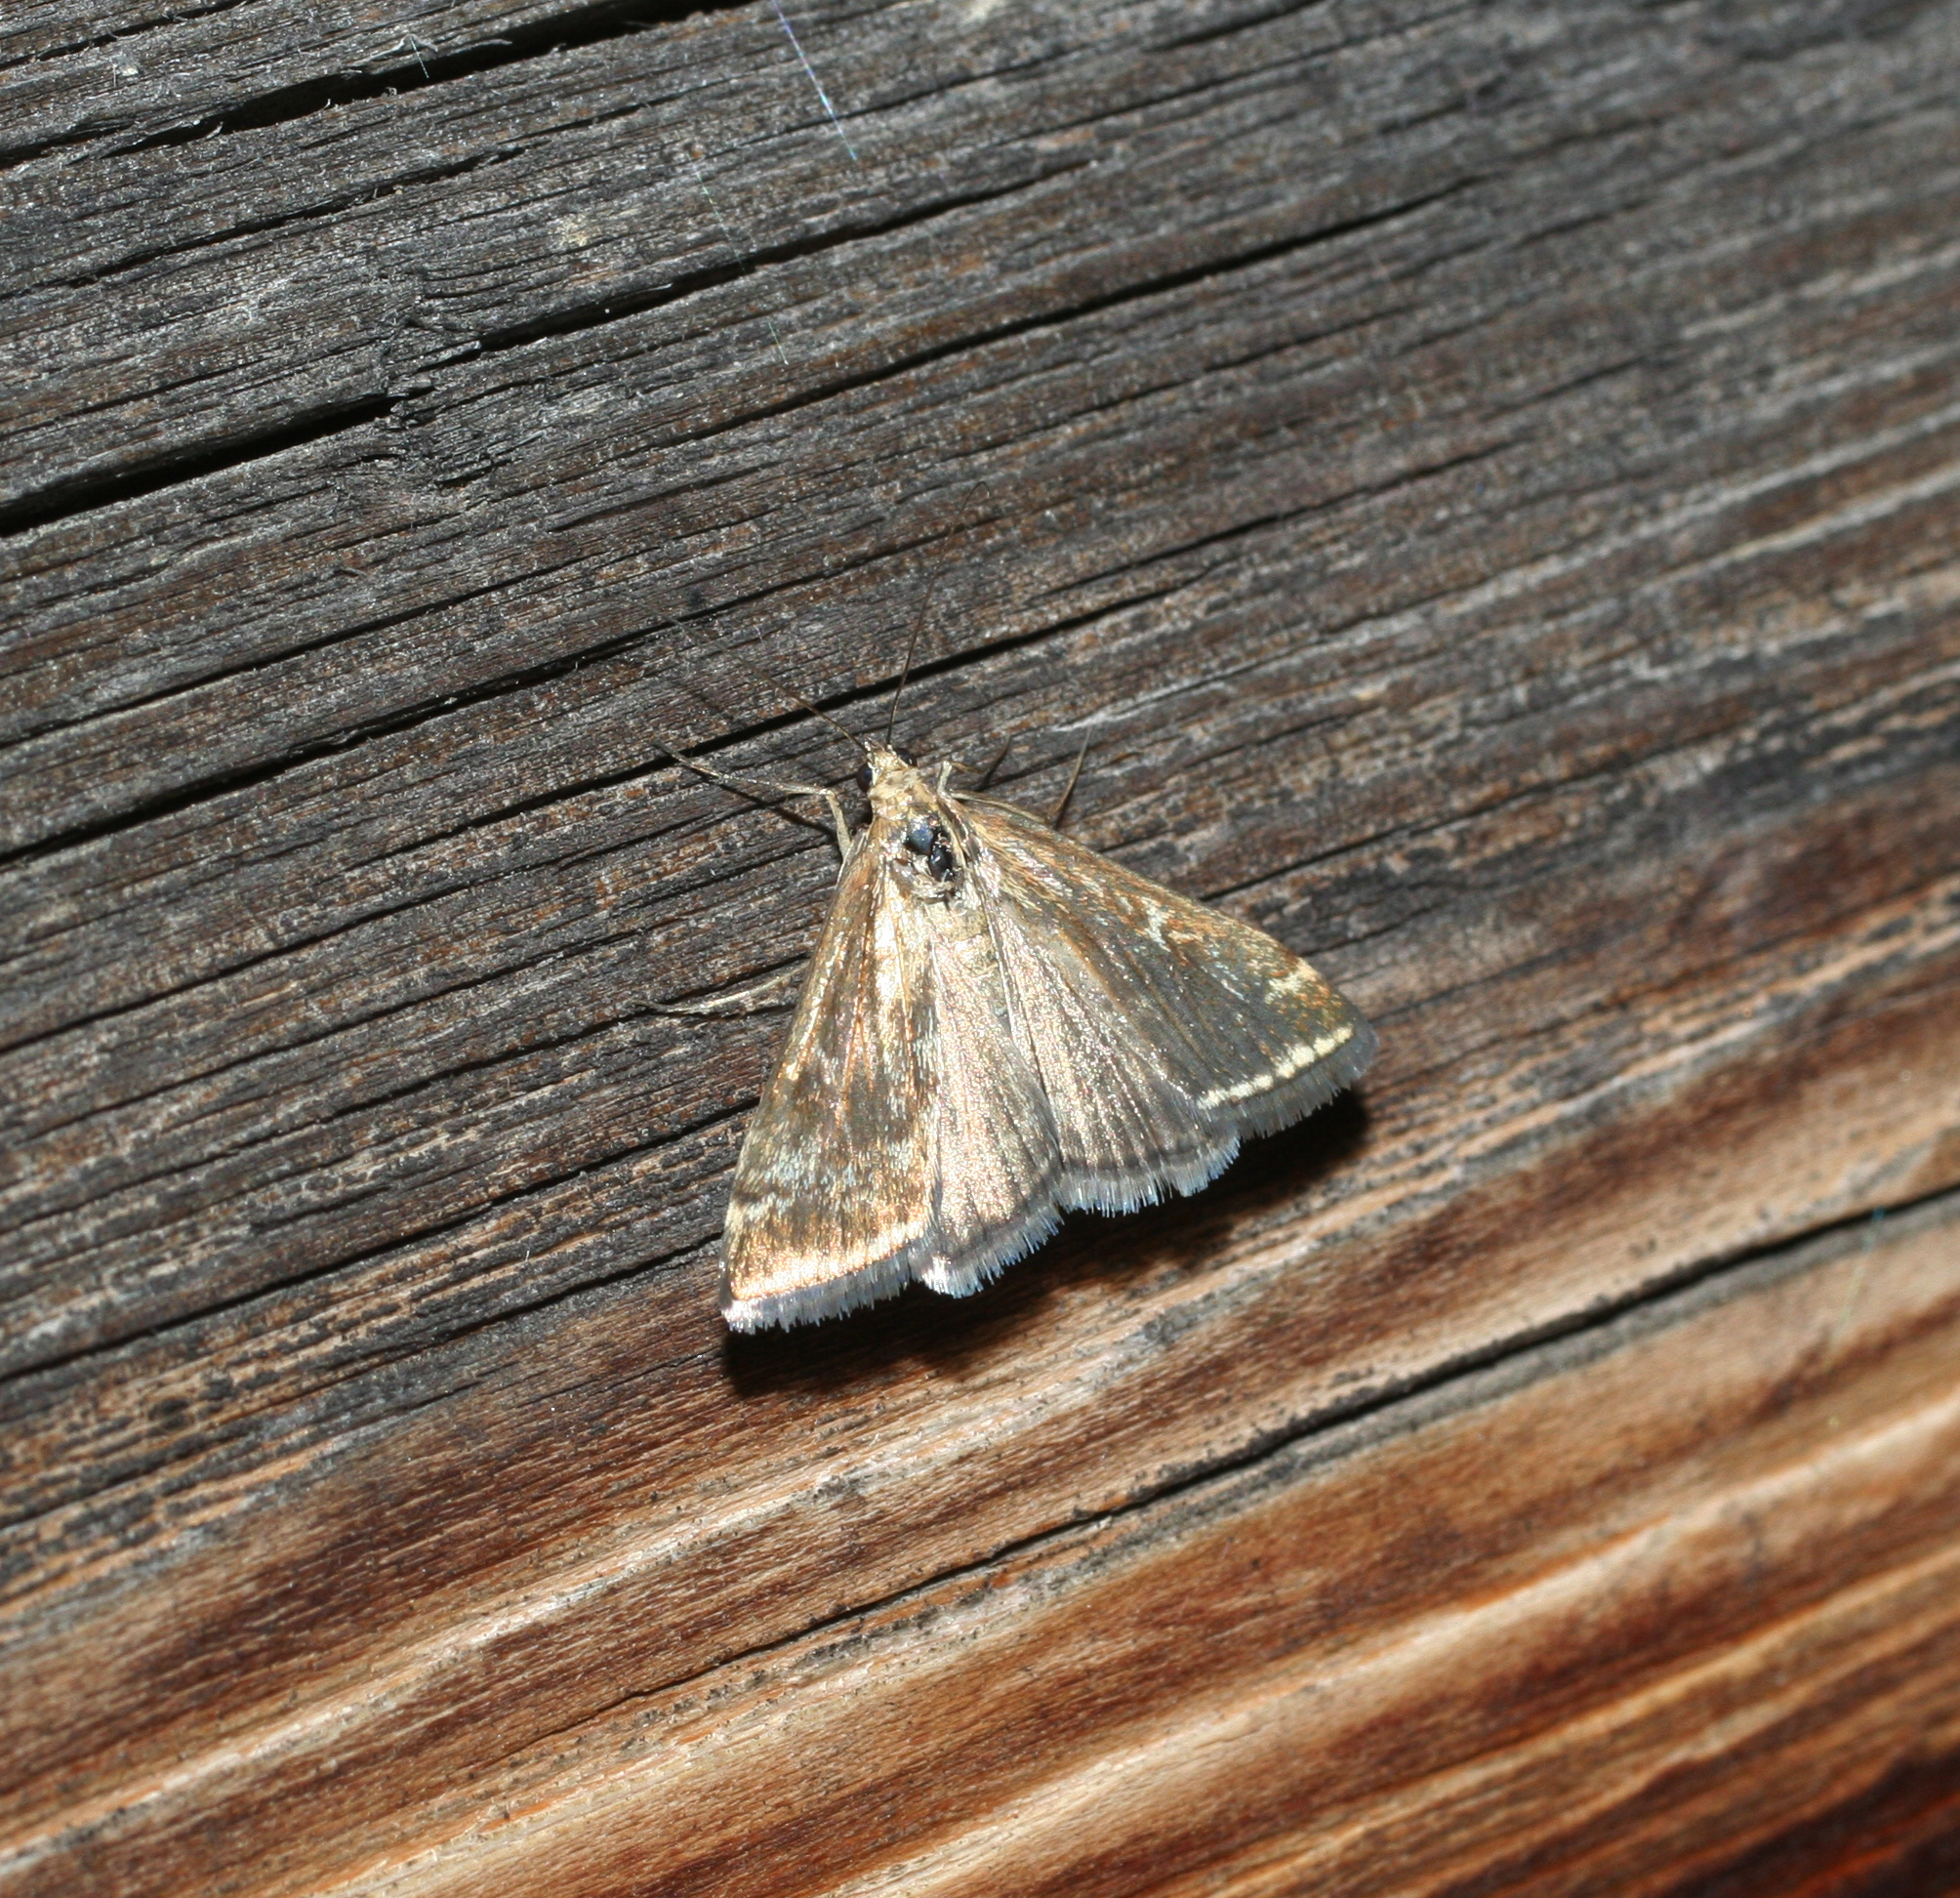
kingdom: Animalia
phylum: Arthropoda
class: Insecta
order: Lepidoptera
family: Crambidae
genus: Loxostege
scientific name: Loxostege sticticalis
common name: Crambid moth
